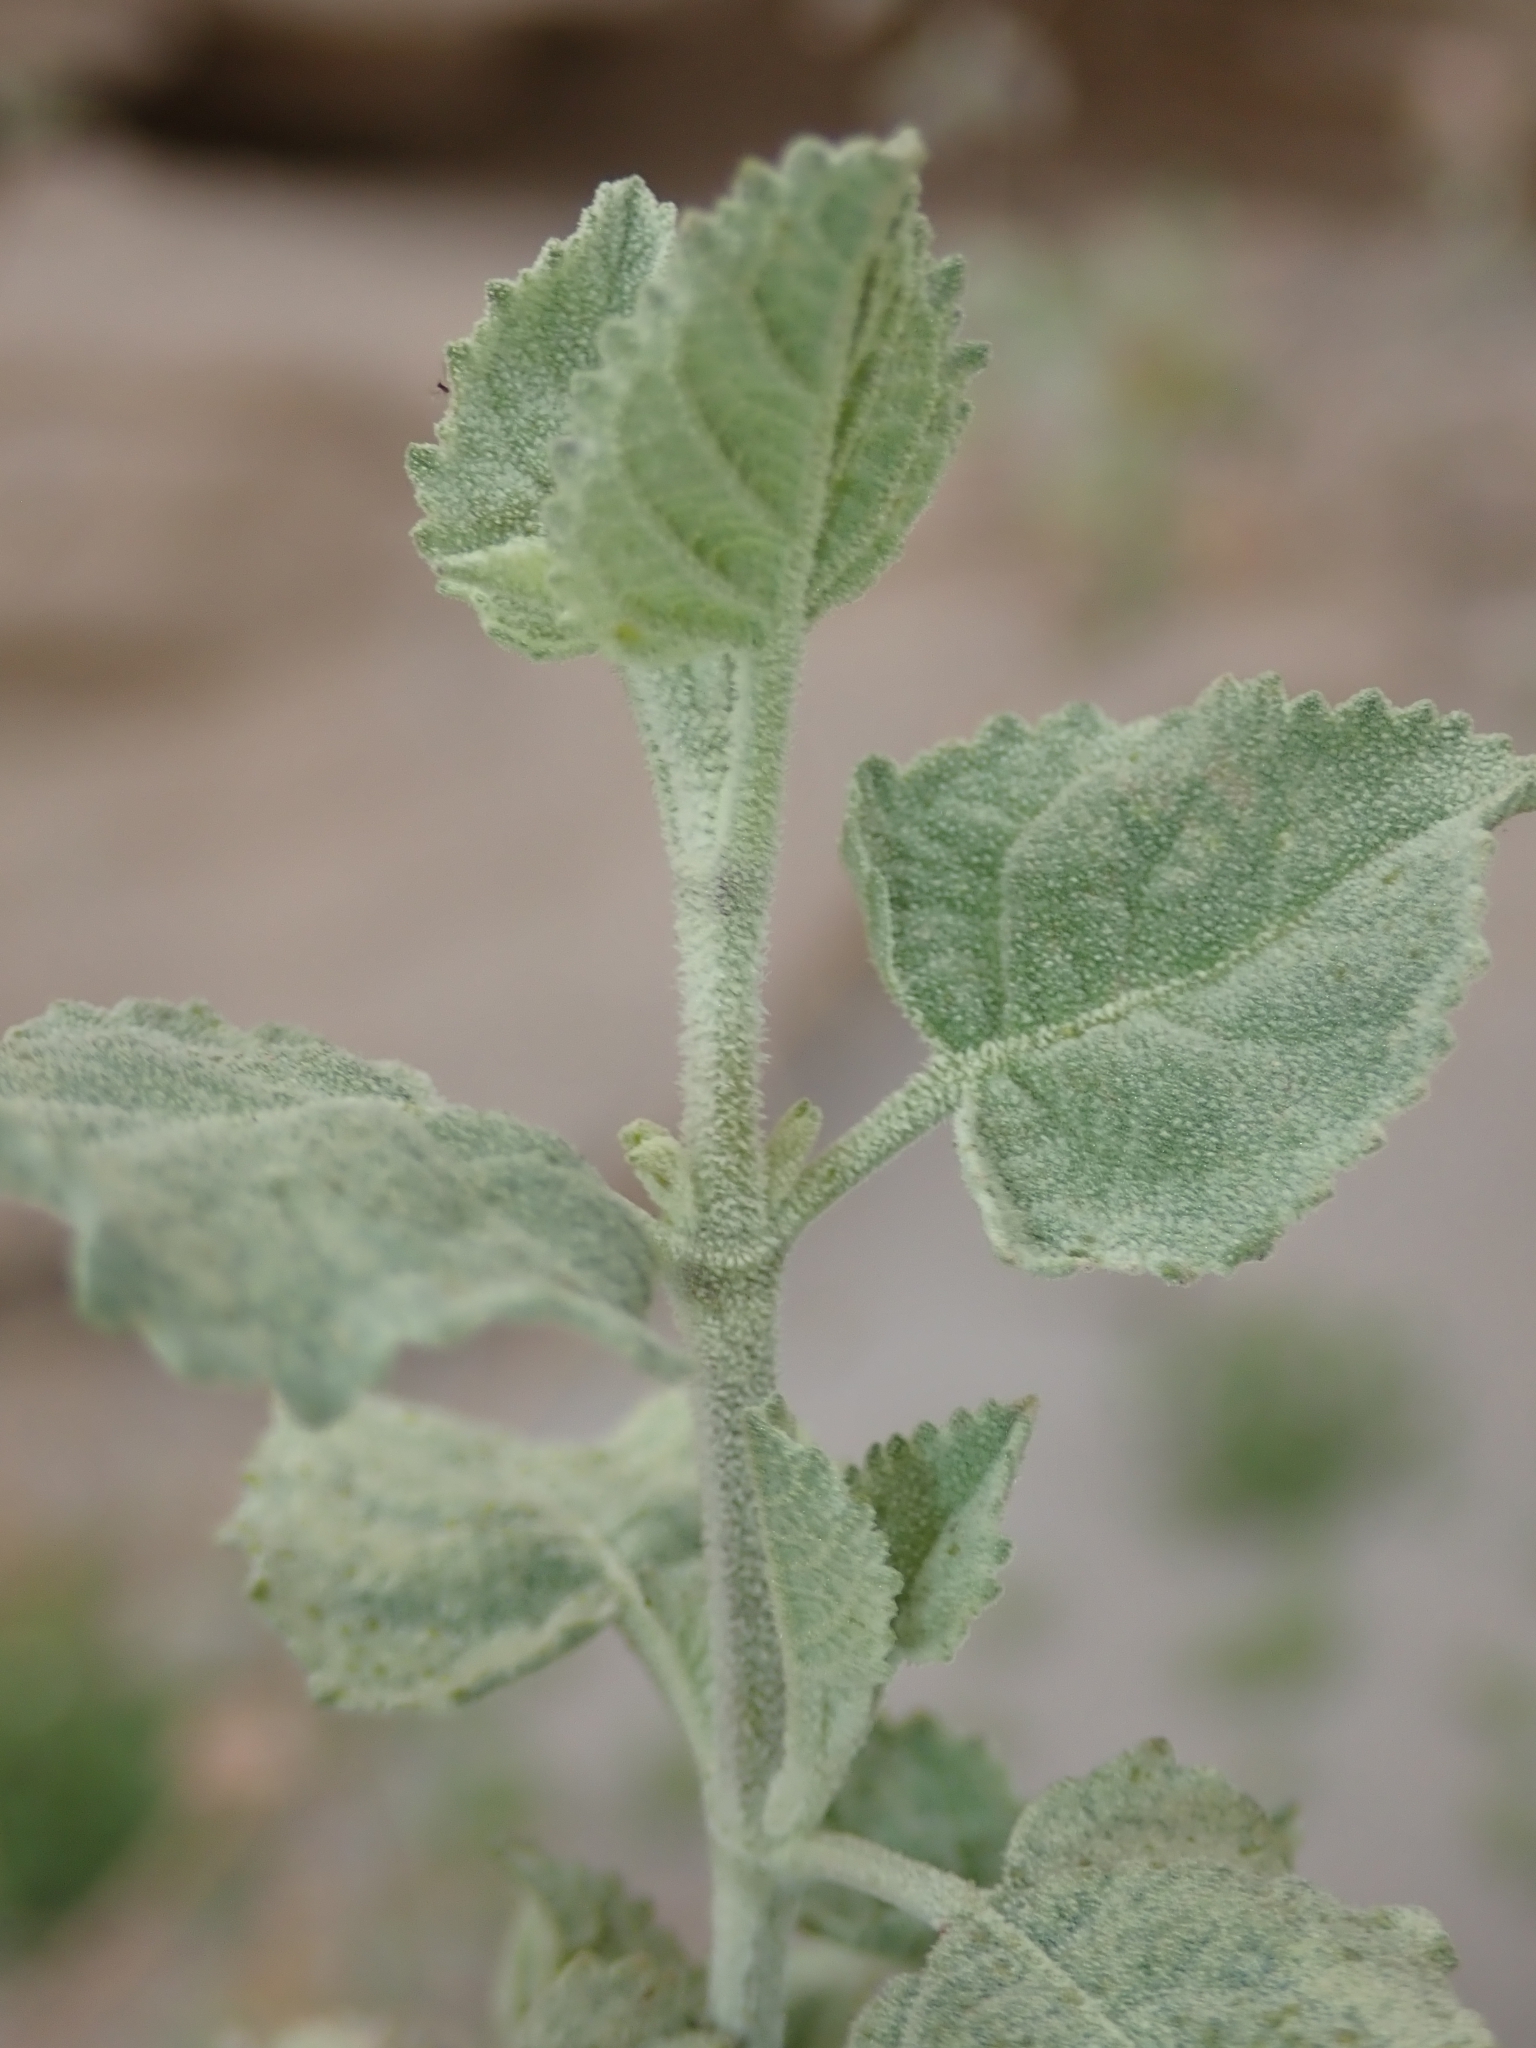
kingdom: Plantae
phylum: Tracheophyta
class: Magnoliopsida
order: Lamiales
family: Lamiaceae
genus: Condea
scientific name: Condea emoryi
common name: Chia
